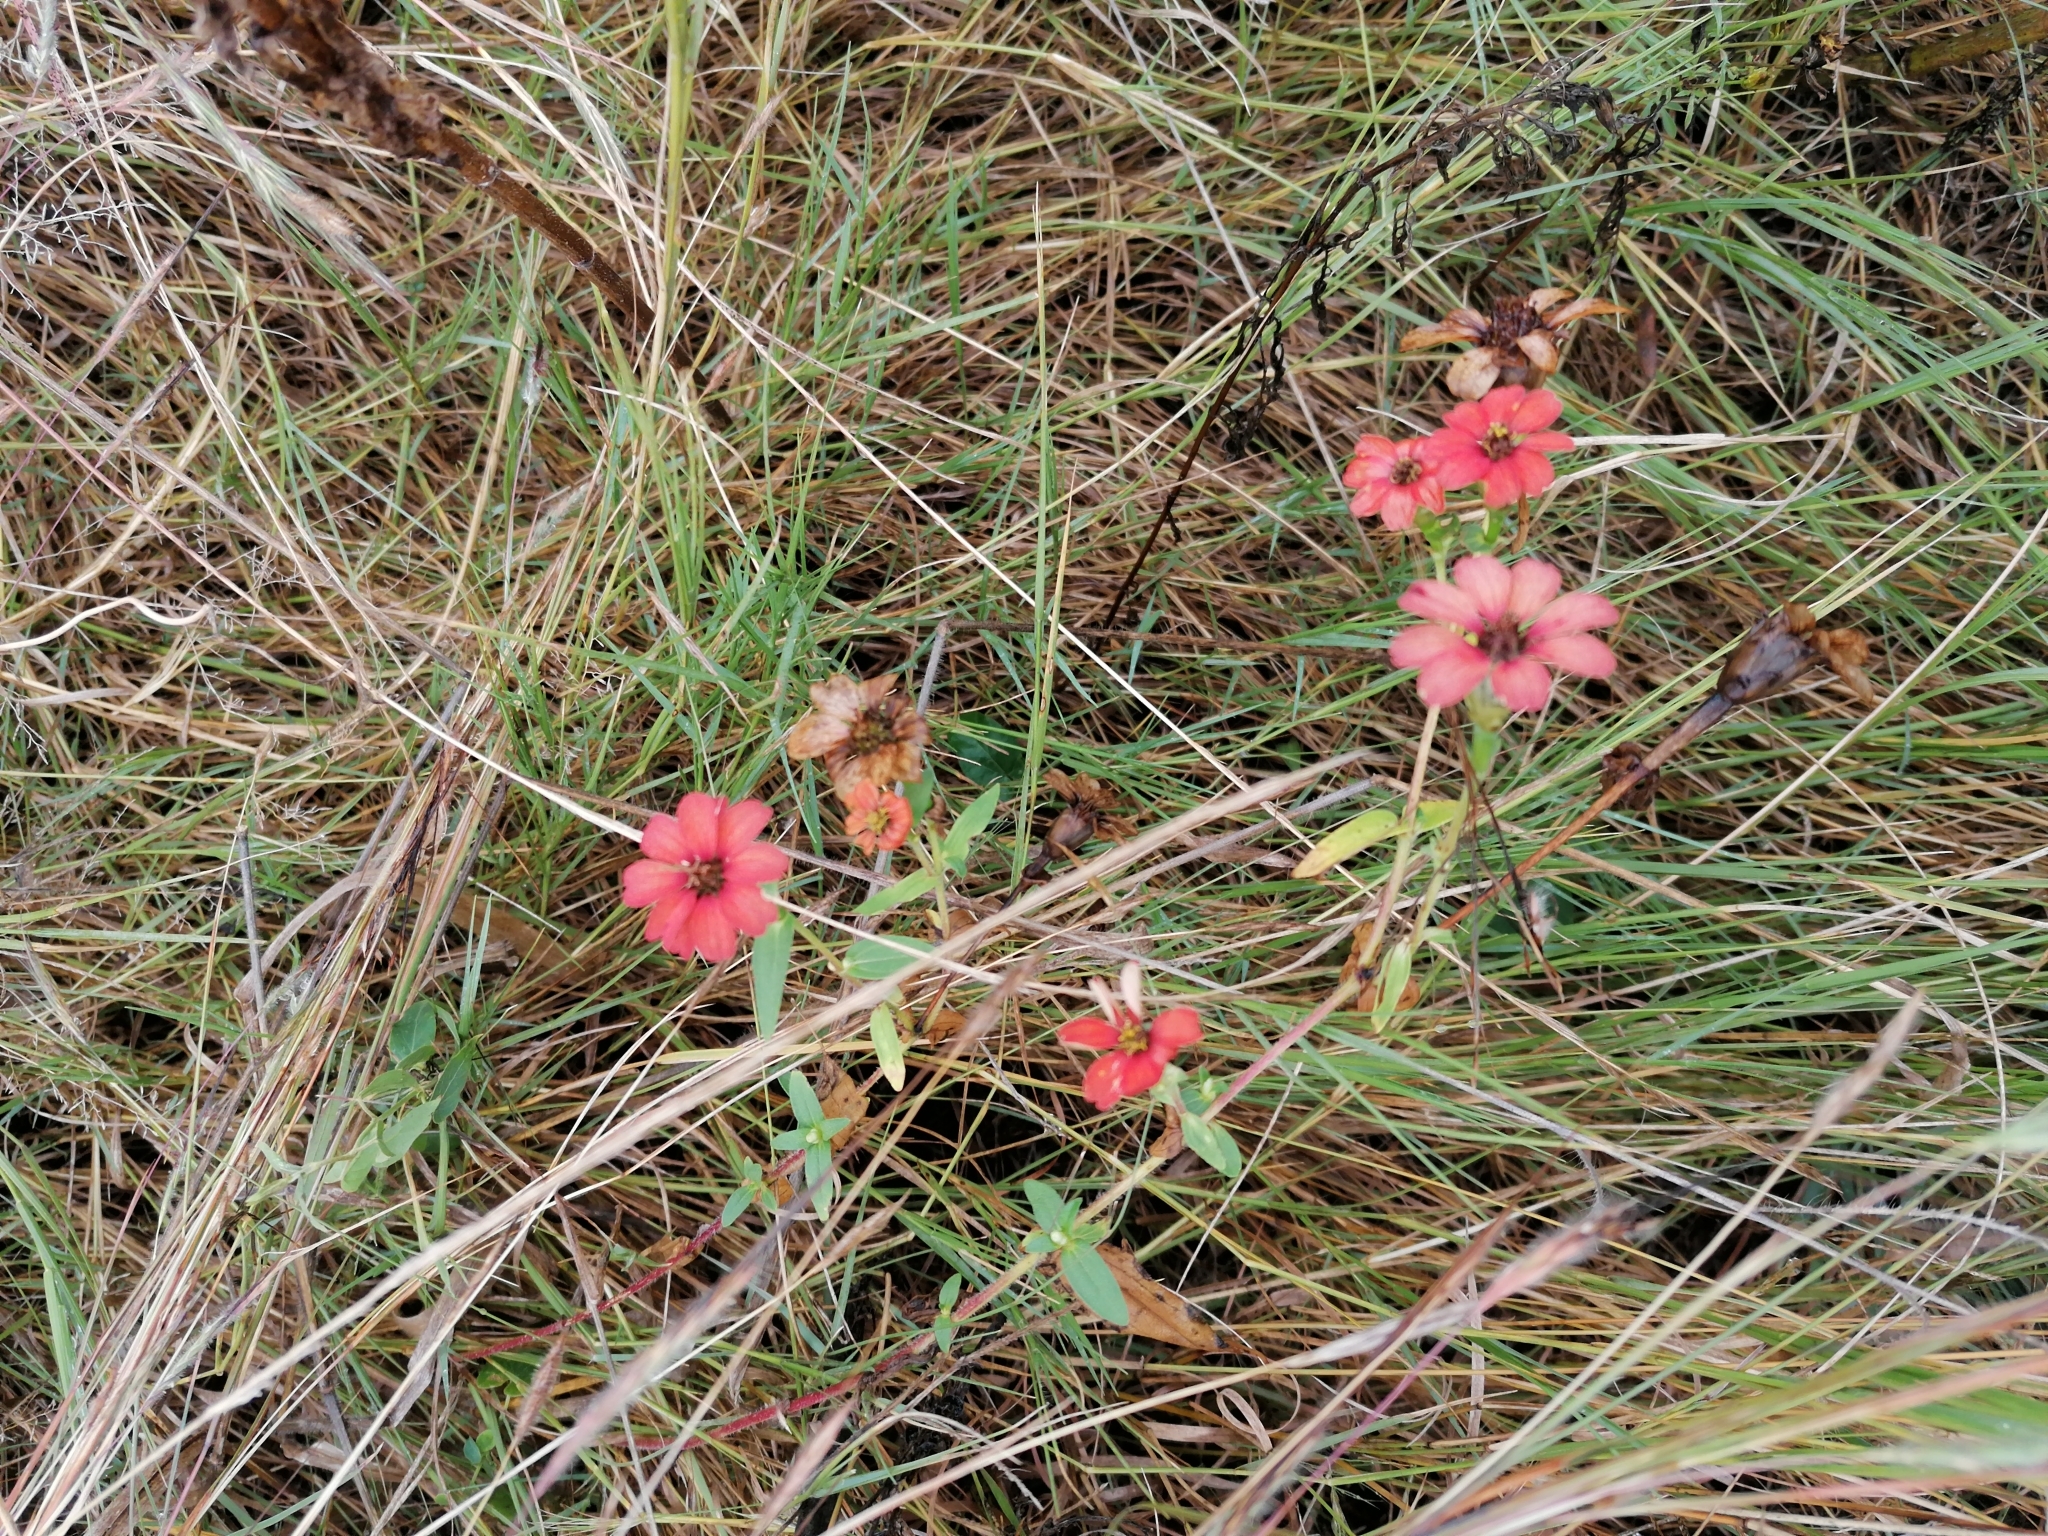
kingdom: Plantae
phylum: Tracheophyta
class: Magnoliopsida
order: Asterales
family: Asteraceae
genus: Zinnia
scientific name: Zinnia peruviana
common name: Peruvian zinnia
